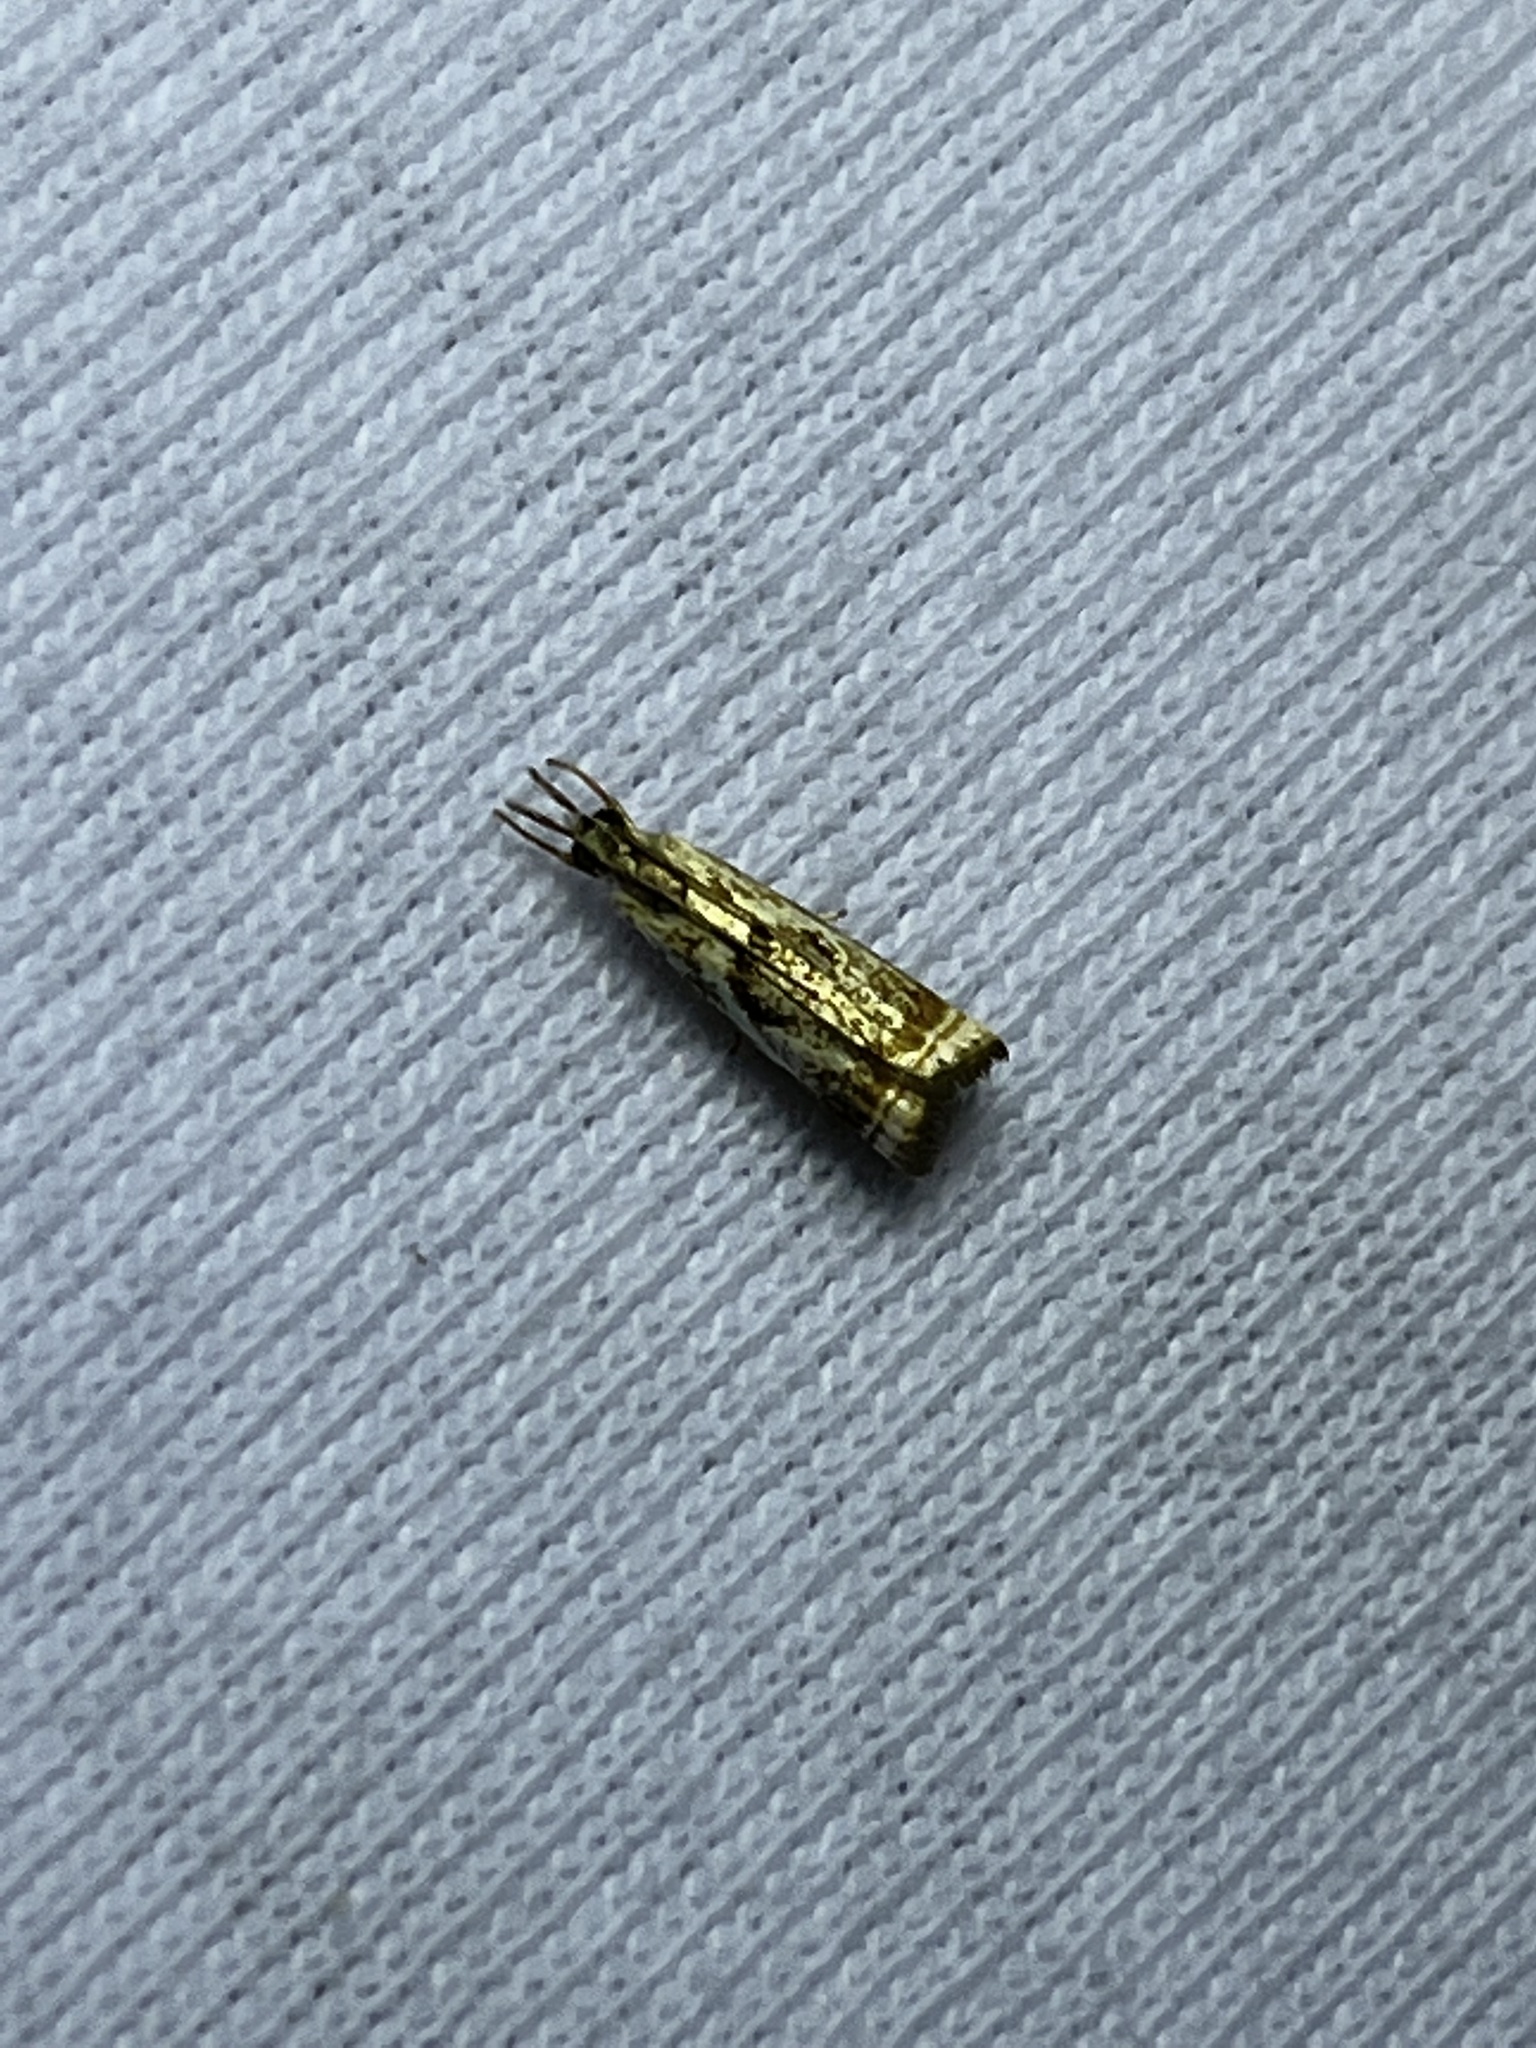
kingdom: Animalia
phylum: Arthropoda
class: Insecta
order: Lepidoptera
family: Crambidae
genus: Microcrambus
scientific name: Microcrambus elegans
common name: Elegant grass-veneer
